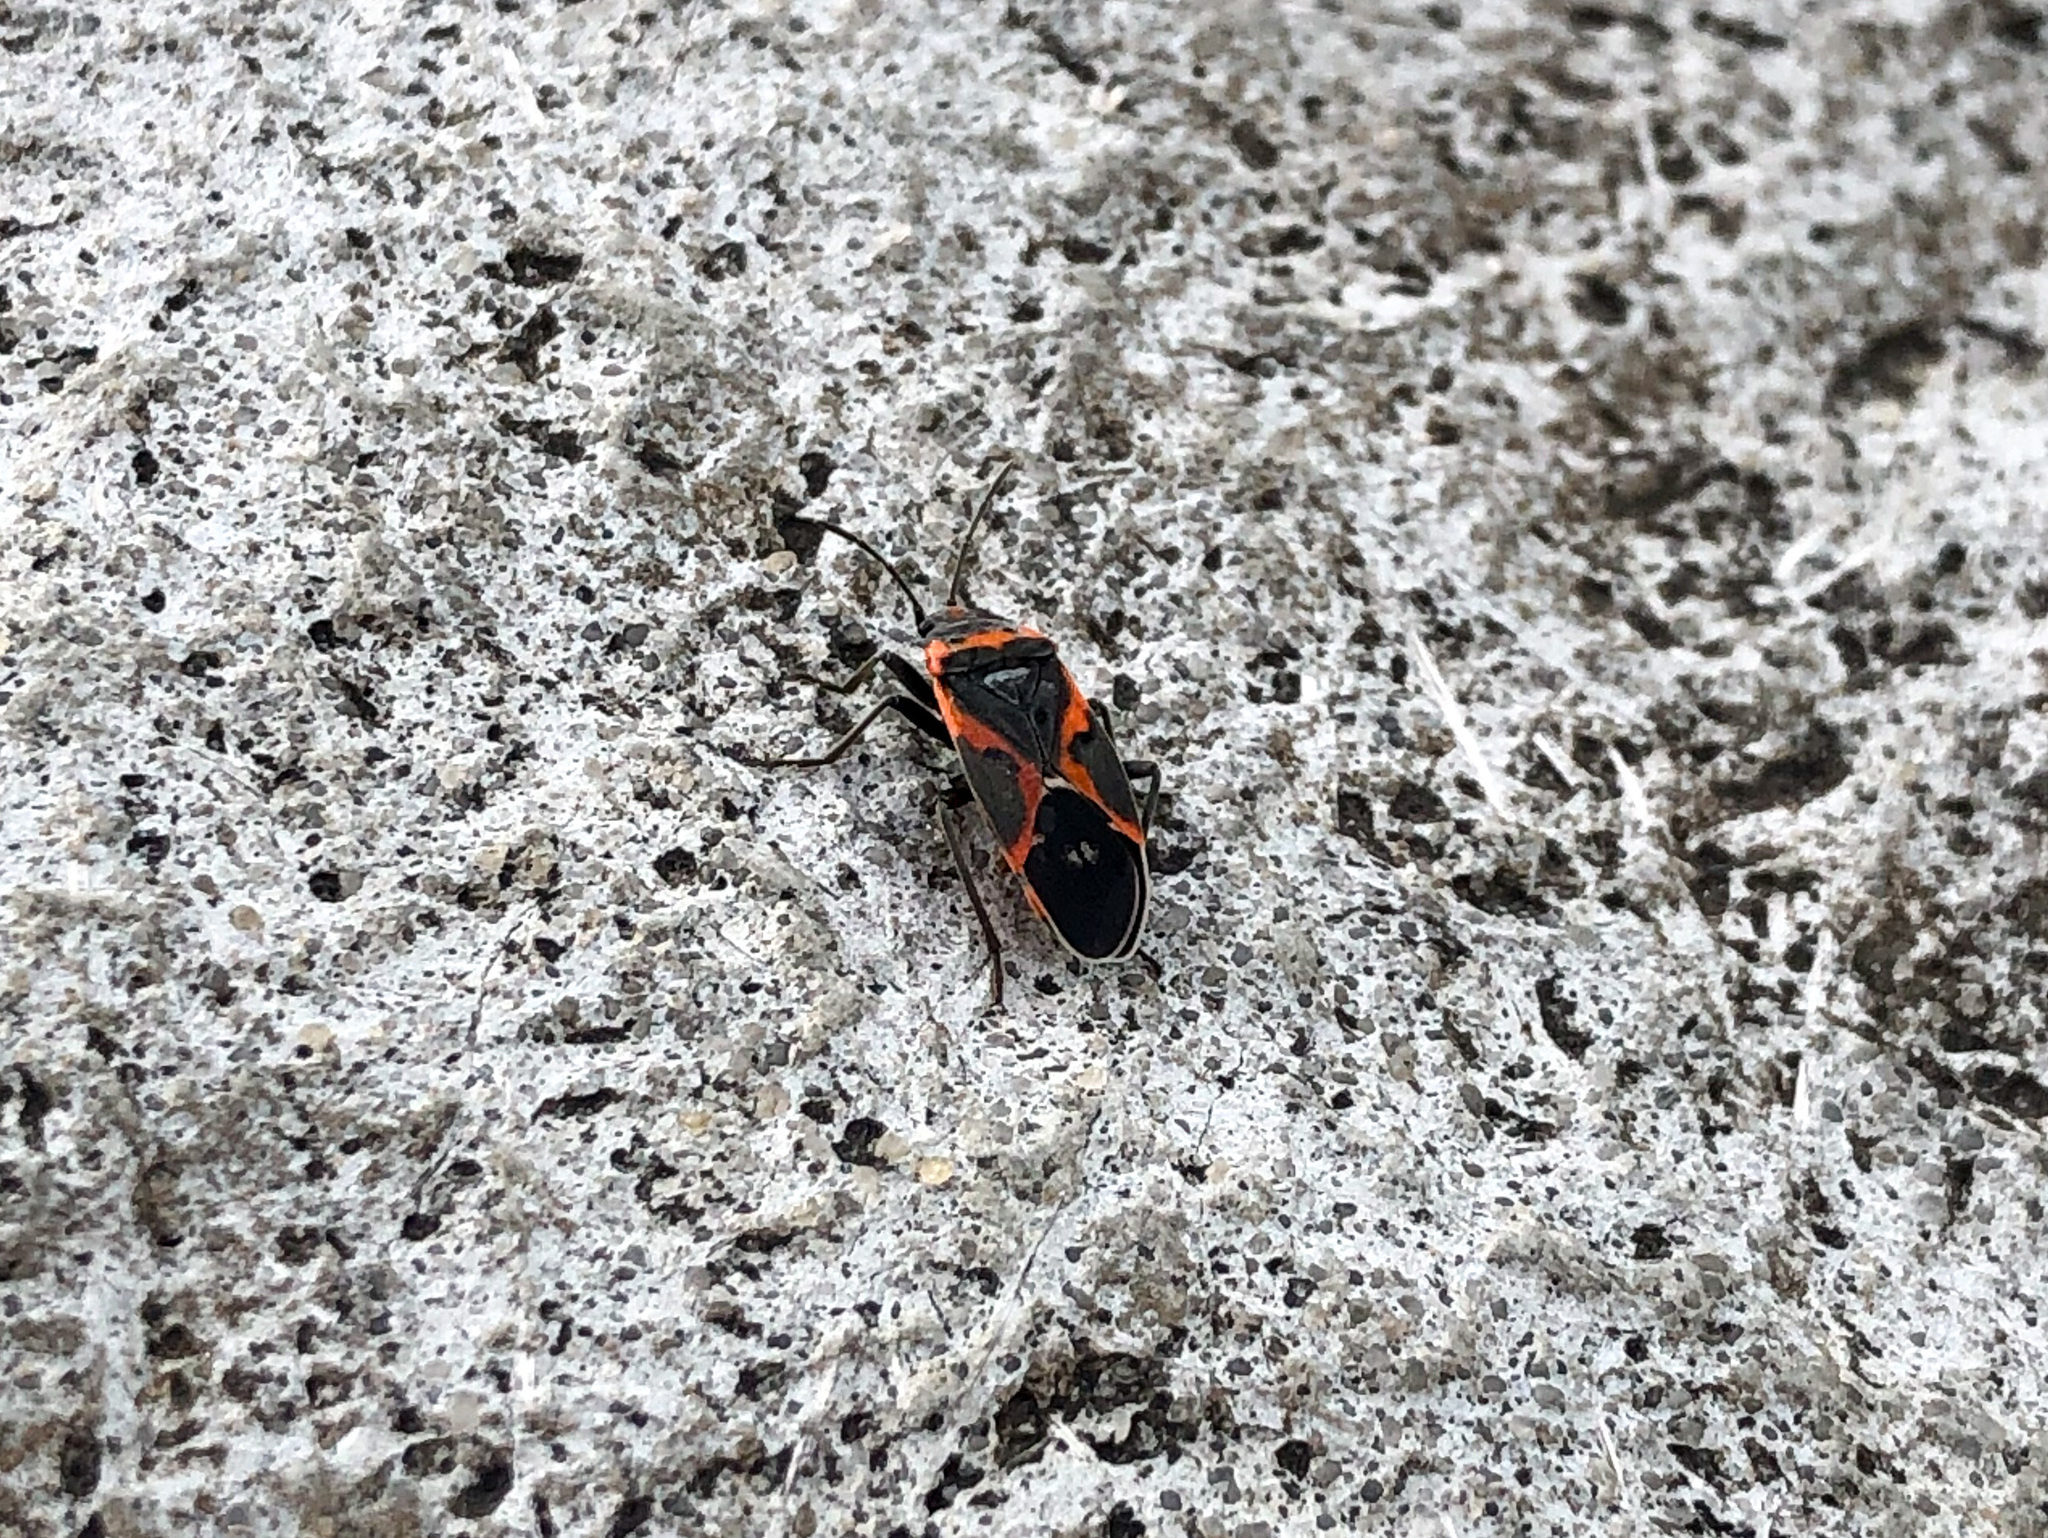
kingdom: Animalia
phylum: Arthropoda
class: Insecta
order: Hemiptera
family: Lygaeidae
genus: Lygaeus
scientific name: Lygaeus kalmii
